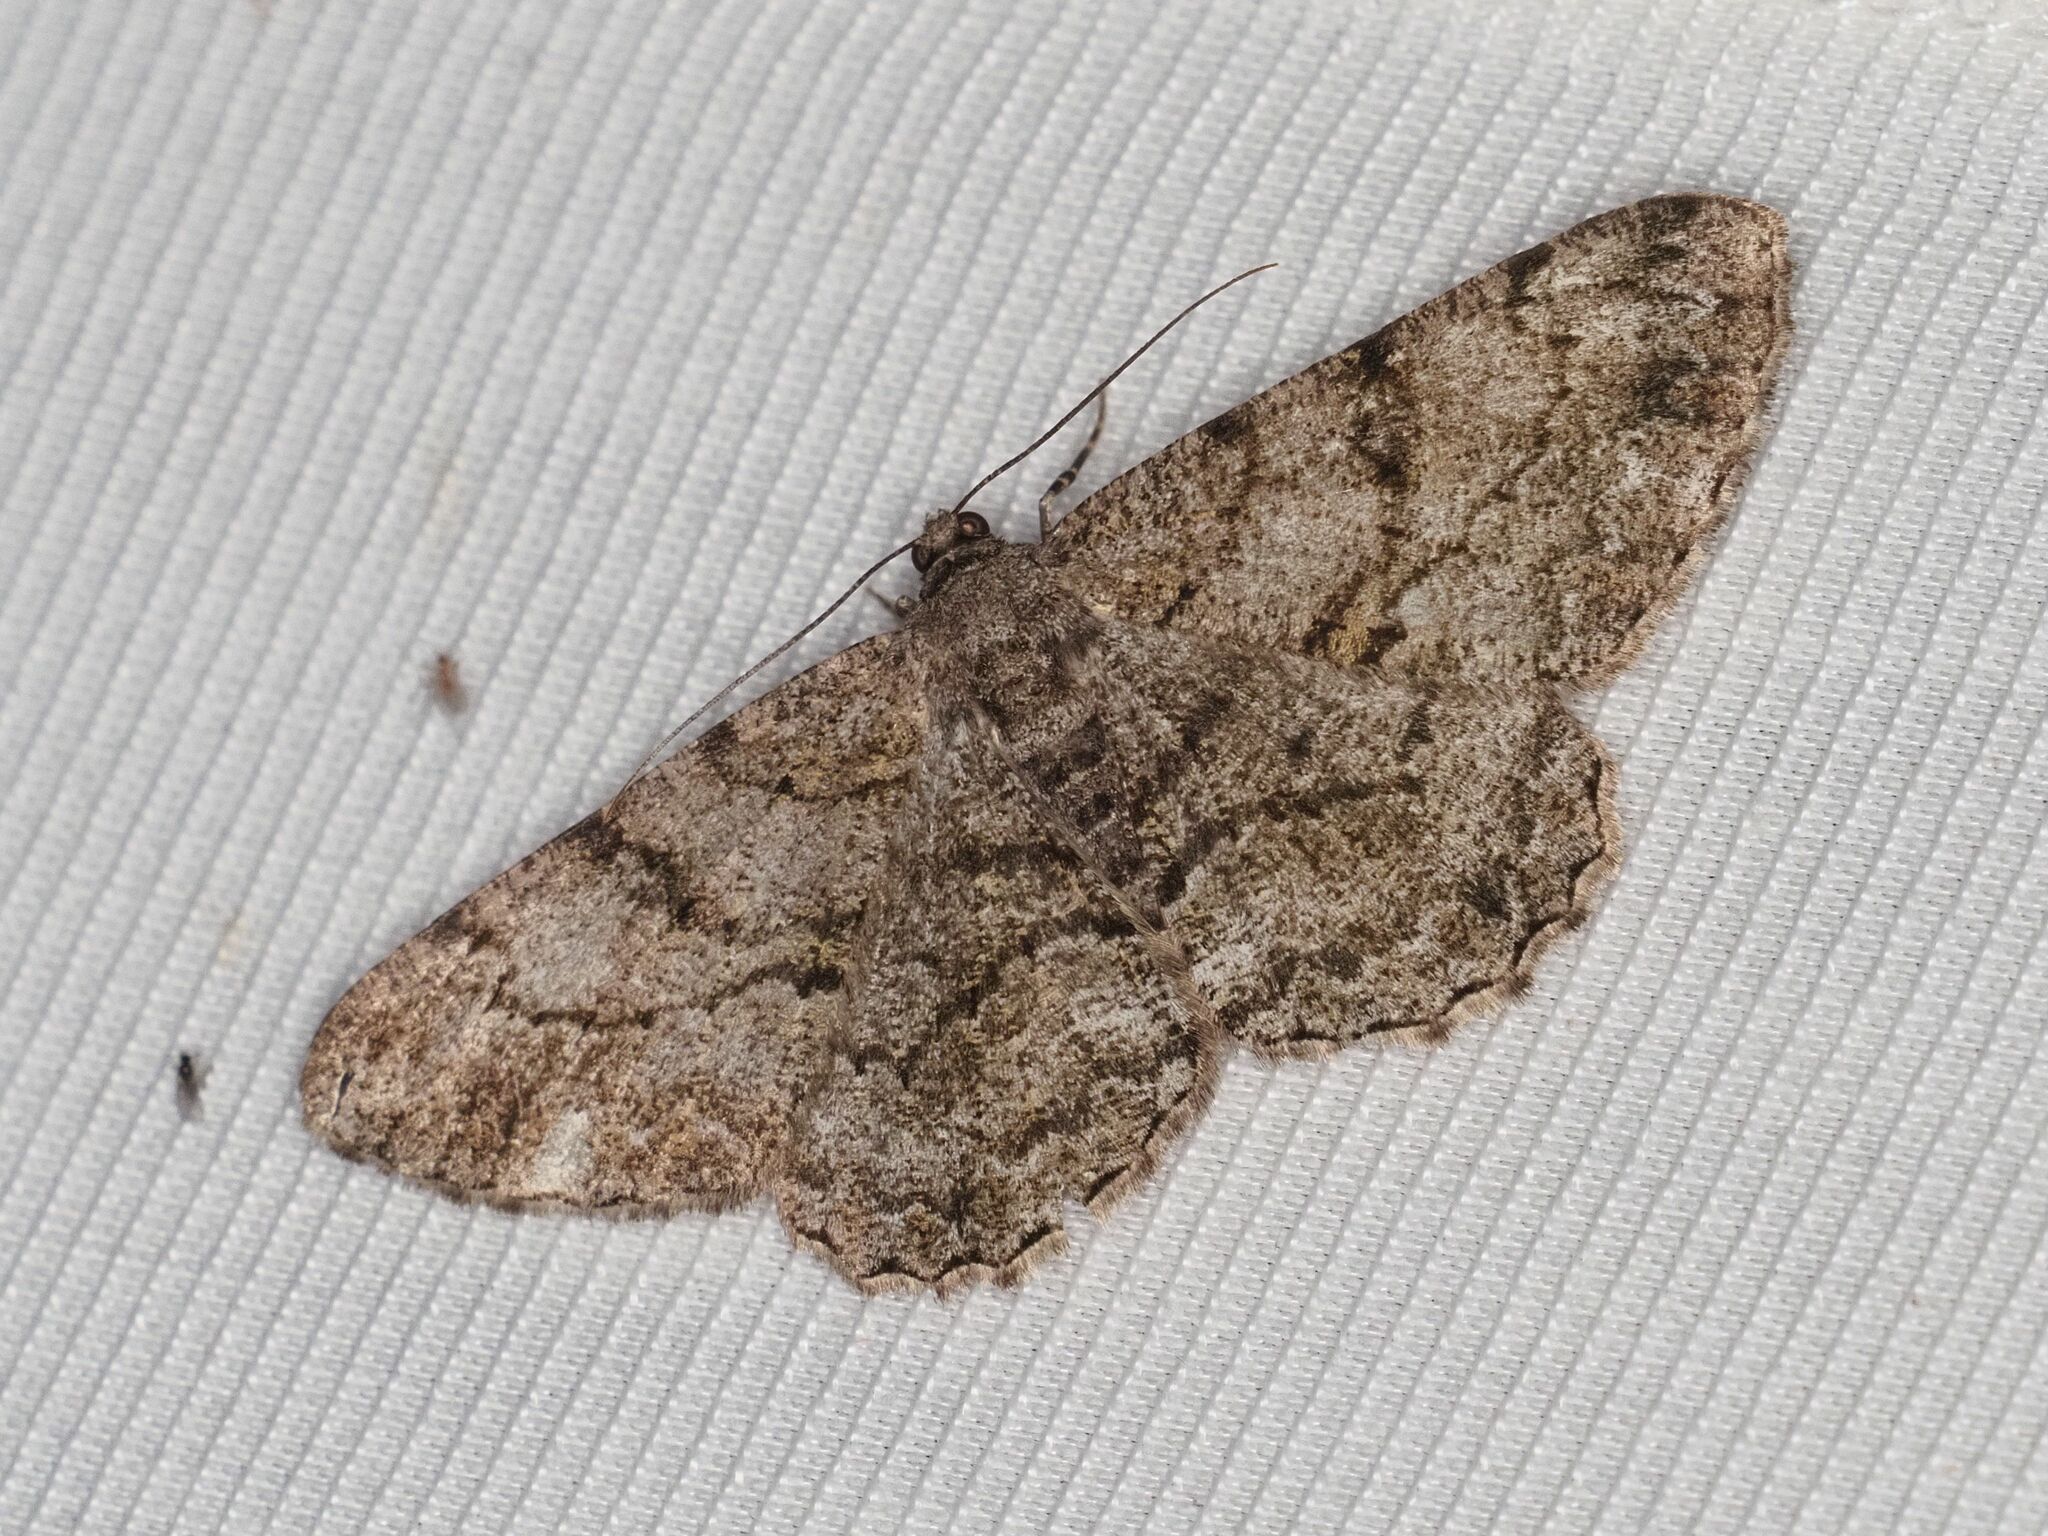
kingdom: Animalia
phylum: Arthropoda
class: Insecta
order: Lepidoptera
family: Geometridae
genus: Peribatodes
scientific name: Peribatodes rhomboidaria
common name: Willow beauty
